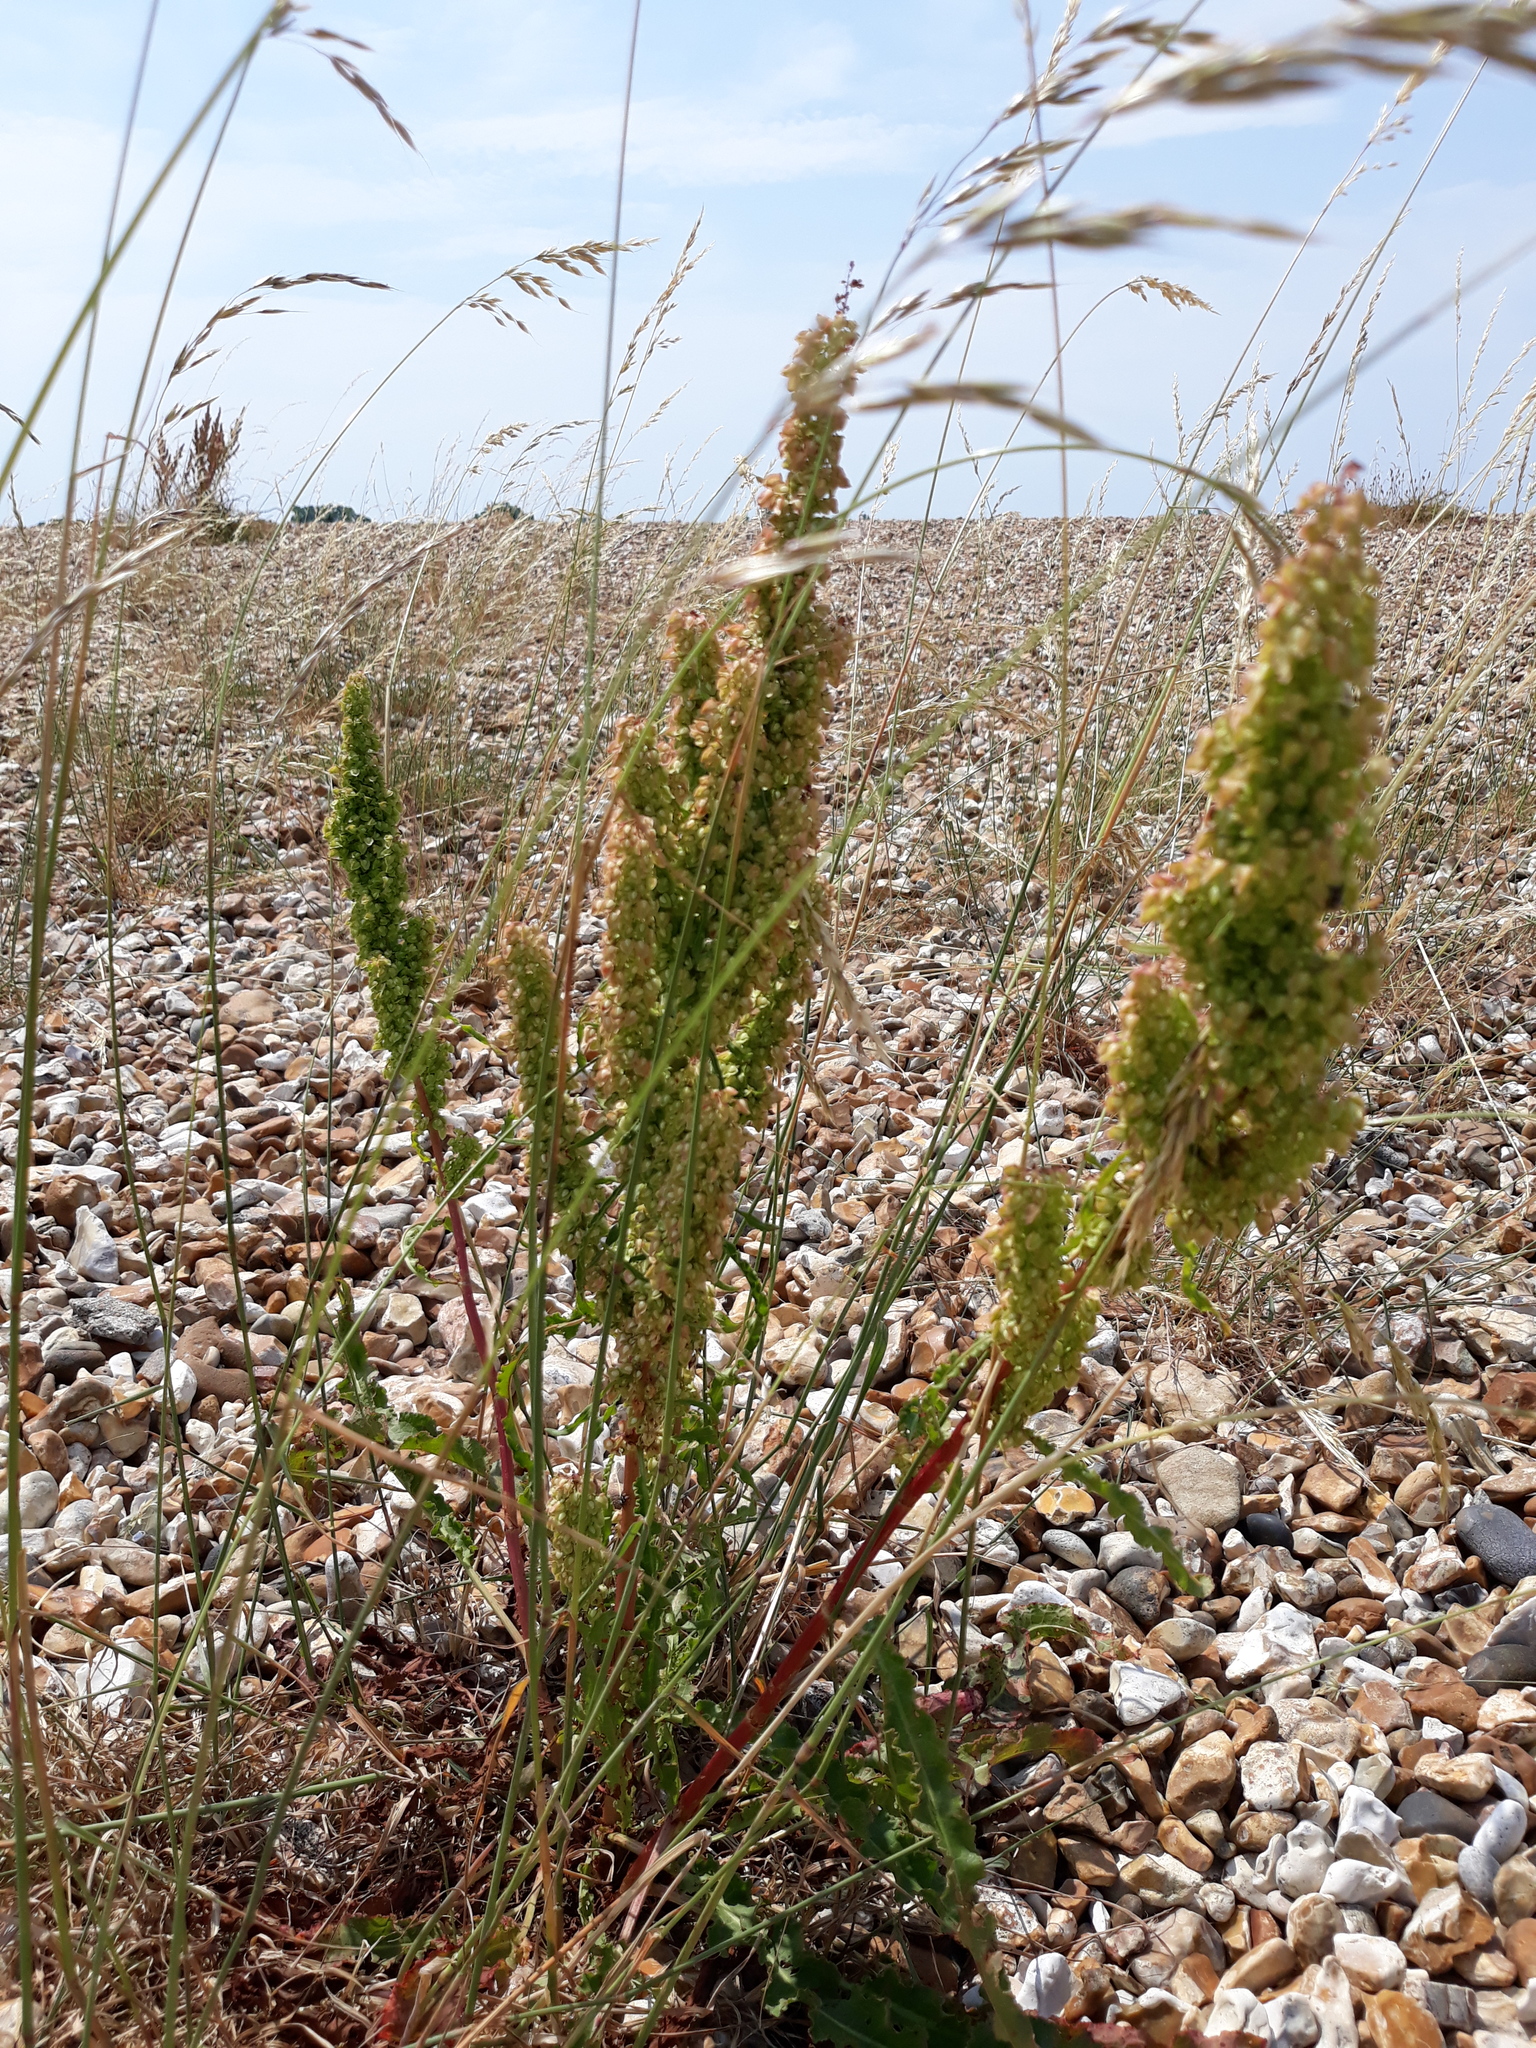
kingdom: Plantae
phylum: Tracheophyta
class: Magnoliopsida
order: Caryophyllales
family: Polygonaceae
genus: Rumex
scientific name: Rumex crispus
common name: Curled dock
